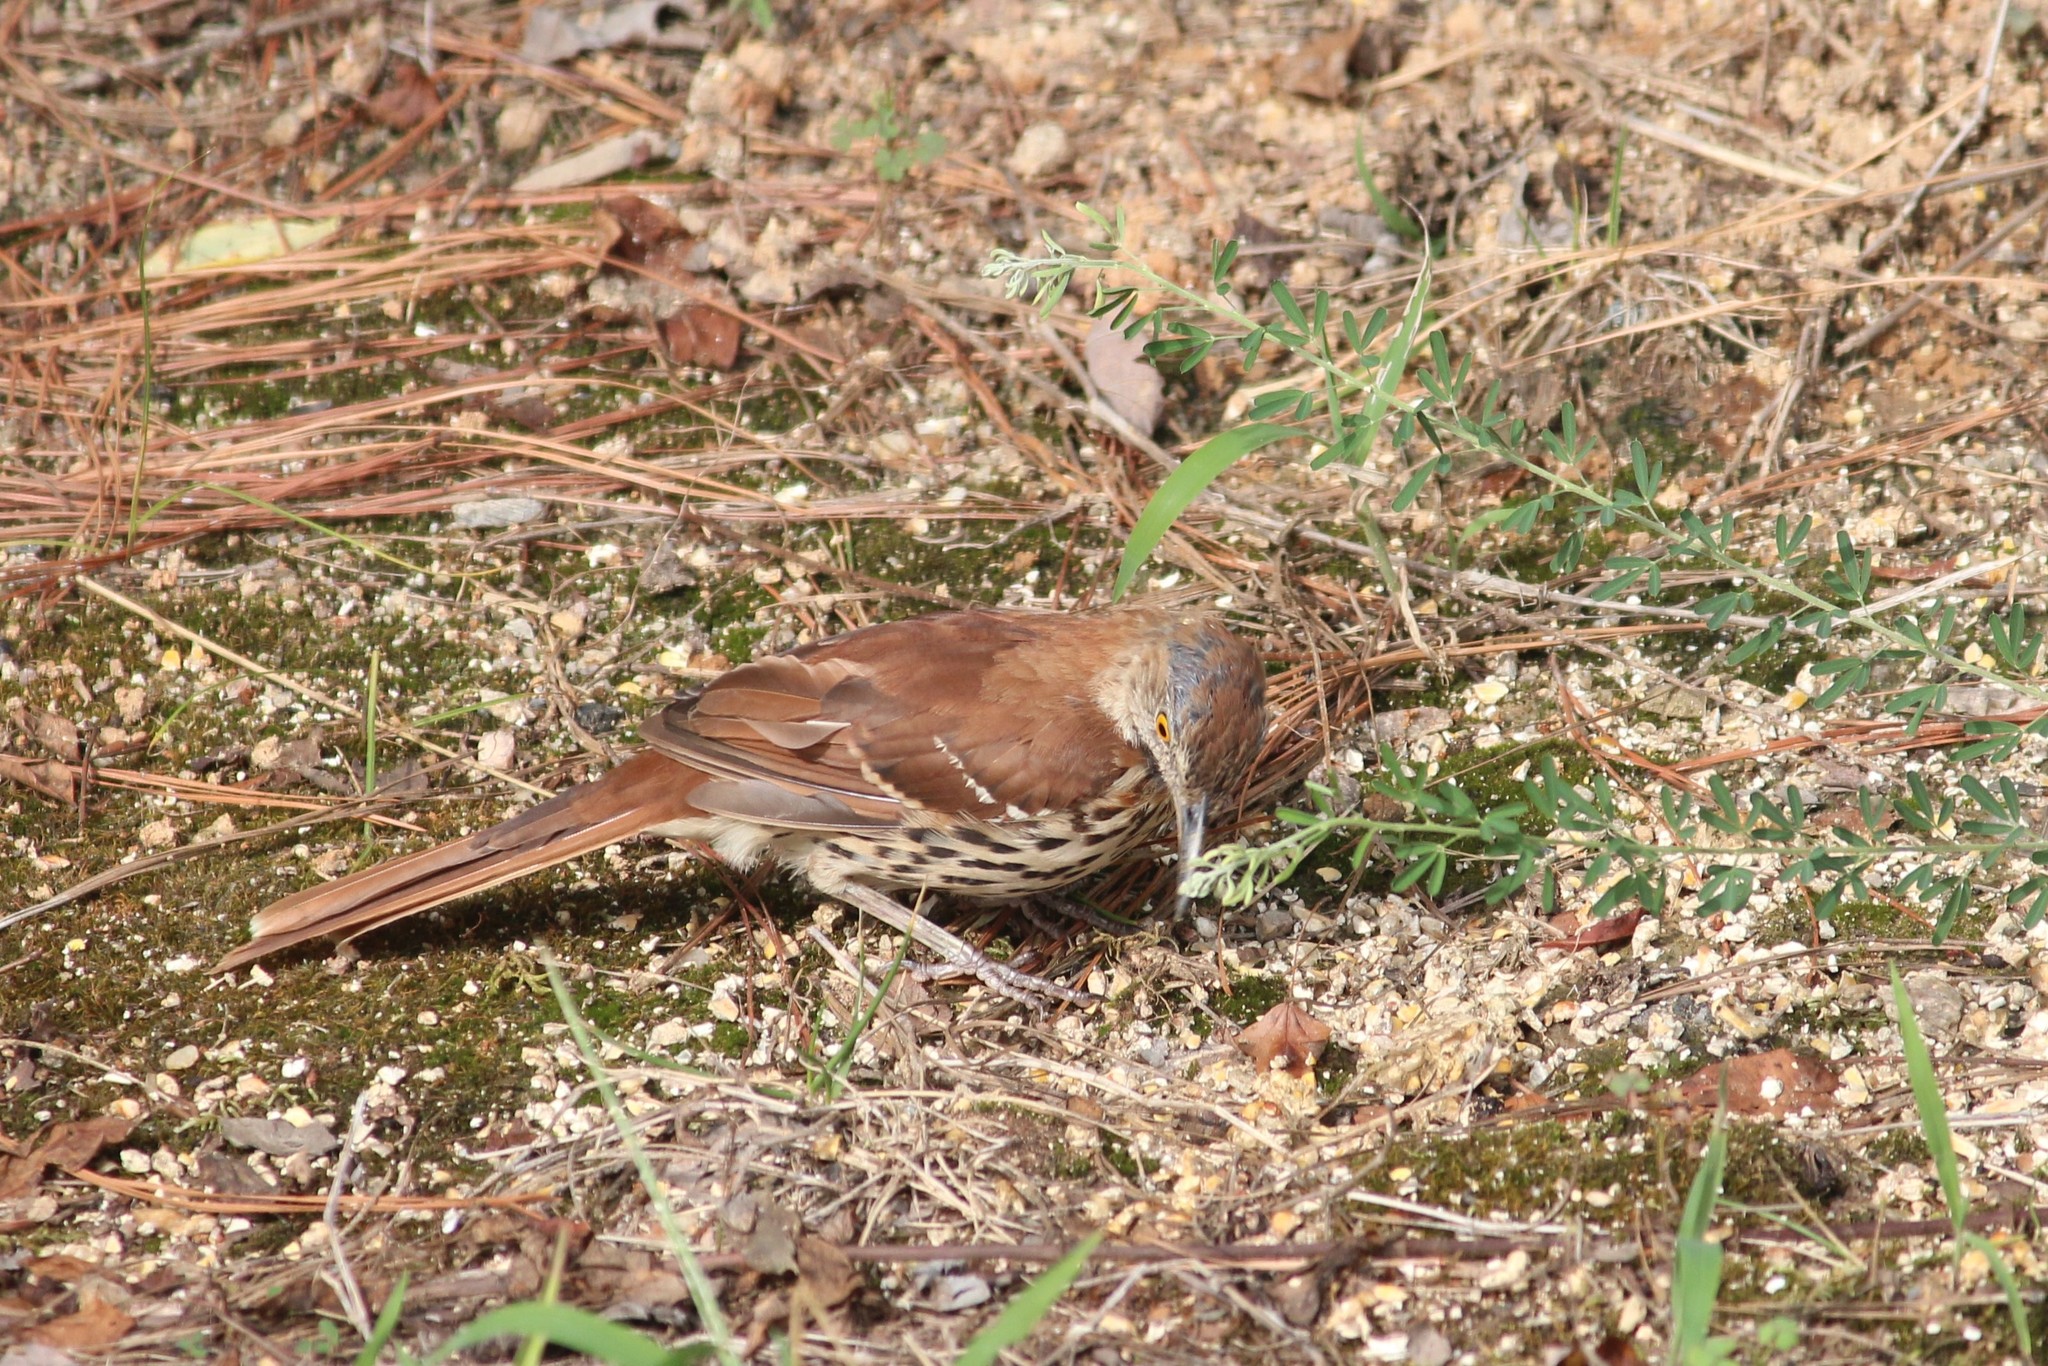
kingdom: Animalia
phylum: Chordata
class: Aves
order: Passeriformes
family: Mimidae
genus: Toxostoma
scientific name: Toxostoma rufum
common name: Brown thrasher
